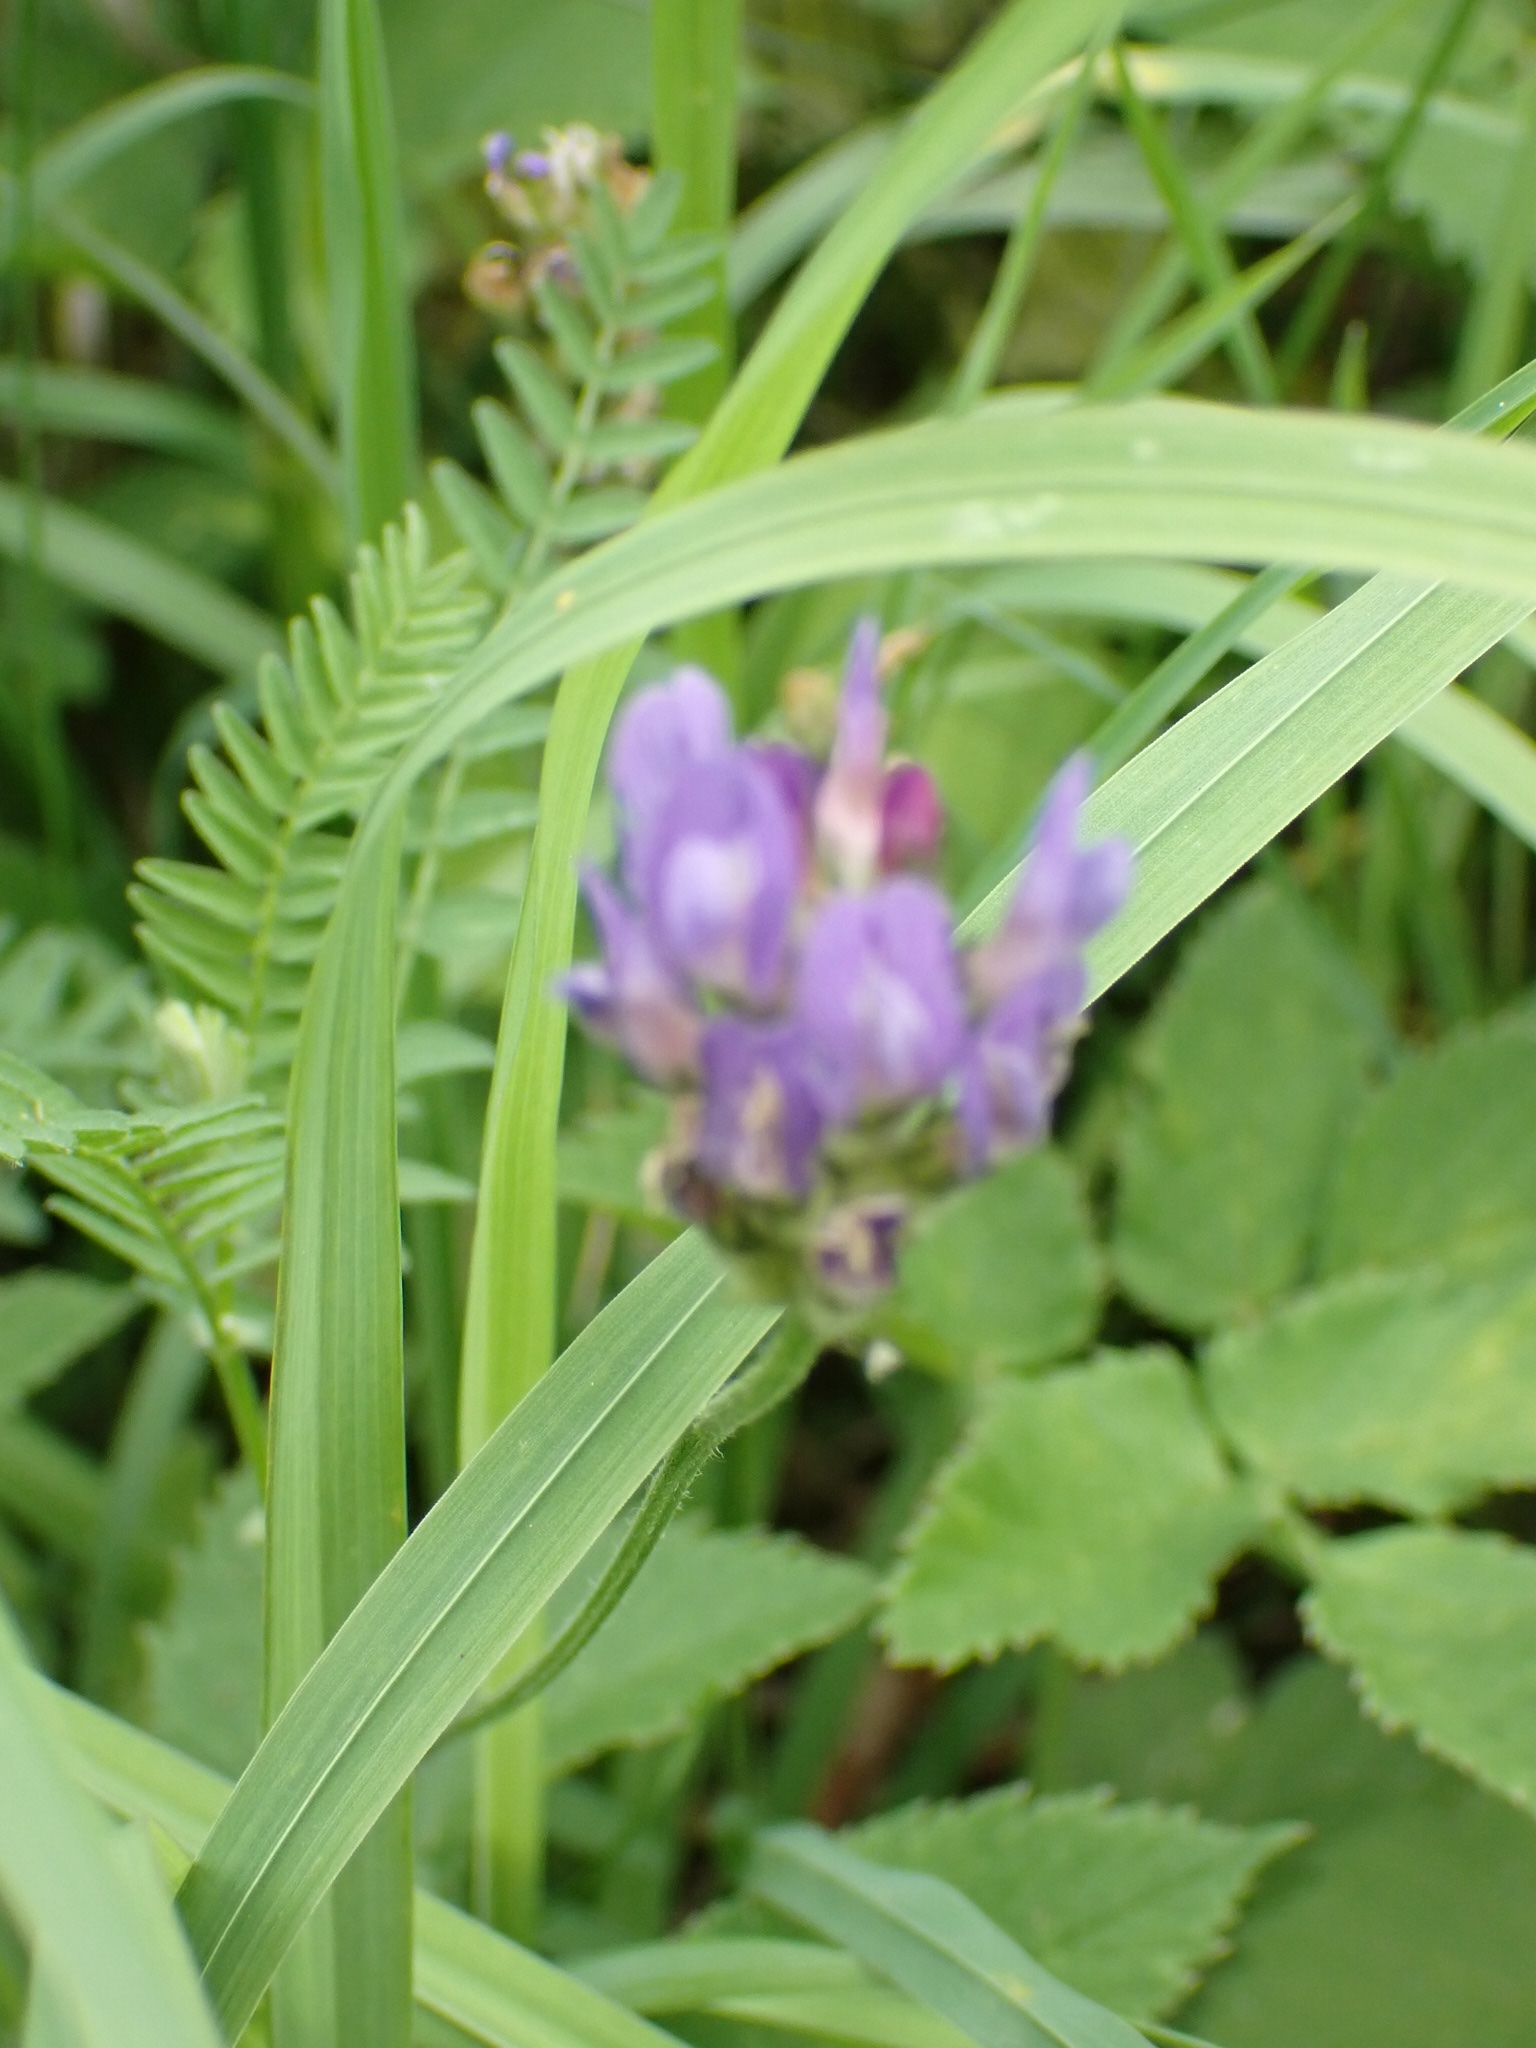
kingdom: Plantae
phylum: Tracheophyta
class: Magnoliopsida
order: Fabales
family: Fabaceae
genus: Astragalus
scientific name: Astragalus danicus
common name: Purple milk-vetch
